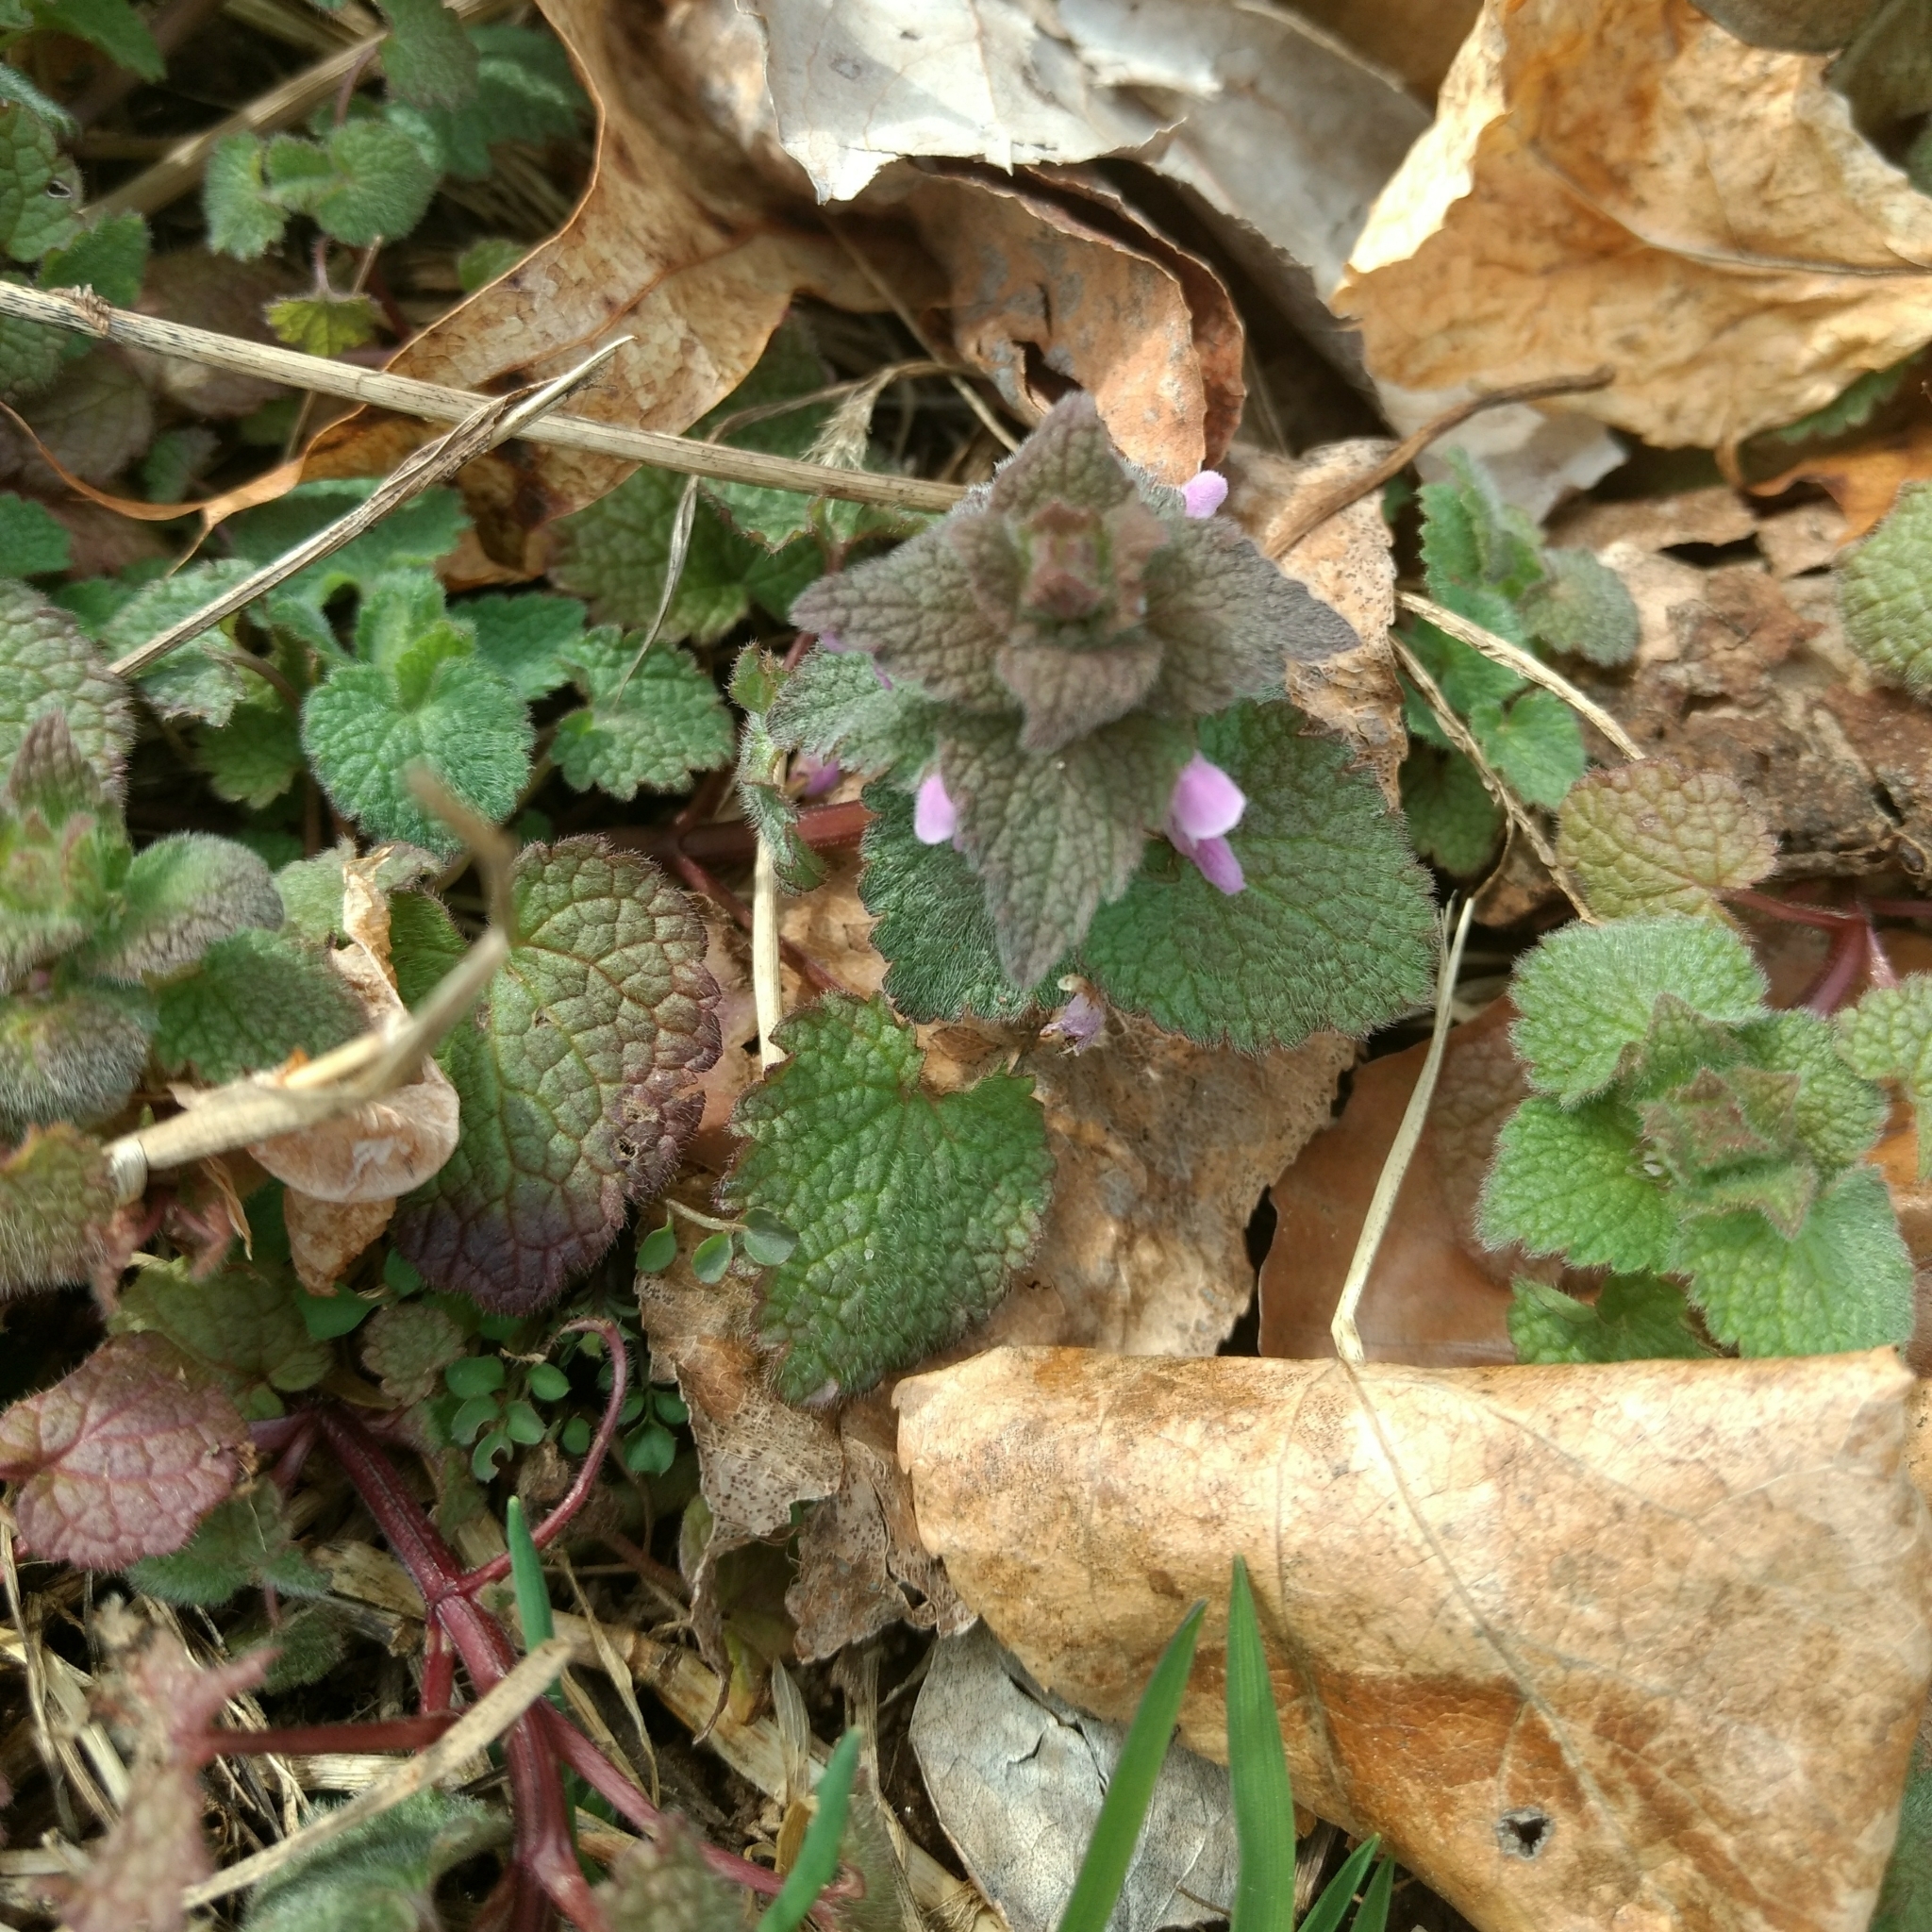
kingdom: Plantae
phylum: Tracheophyta
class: Magnoliopsida
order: Lamiales
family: Lamiaceae
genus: Lamium
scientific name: Lamium purpureum
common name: Red dead-nettle
